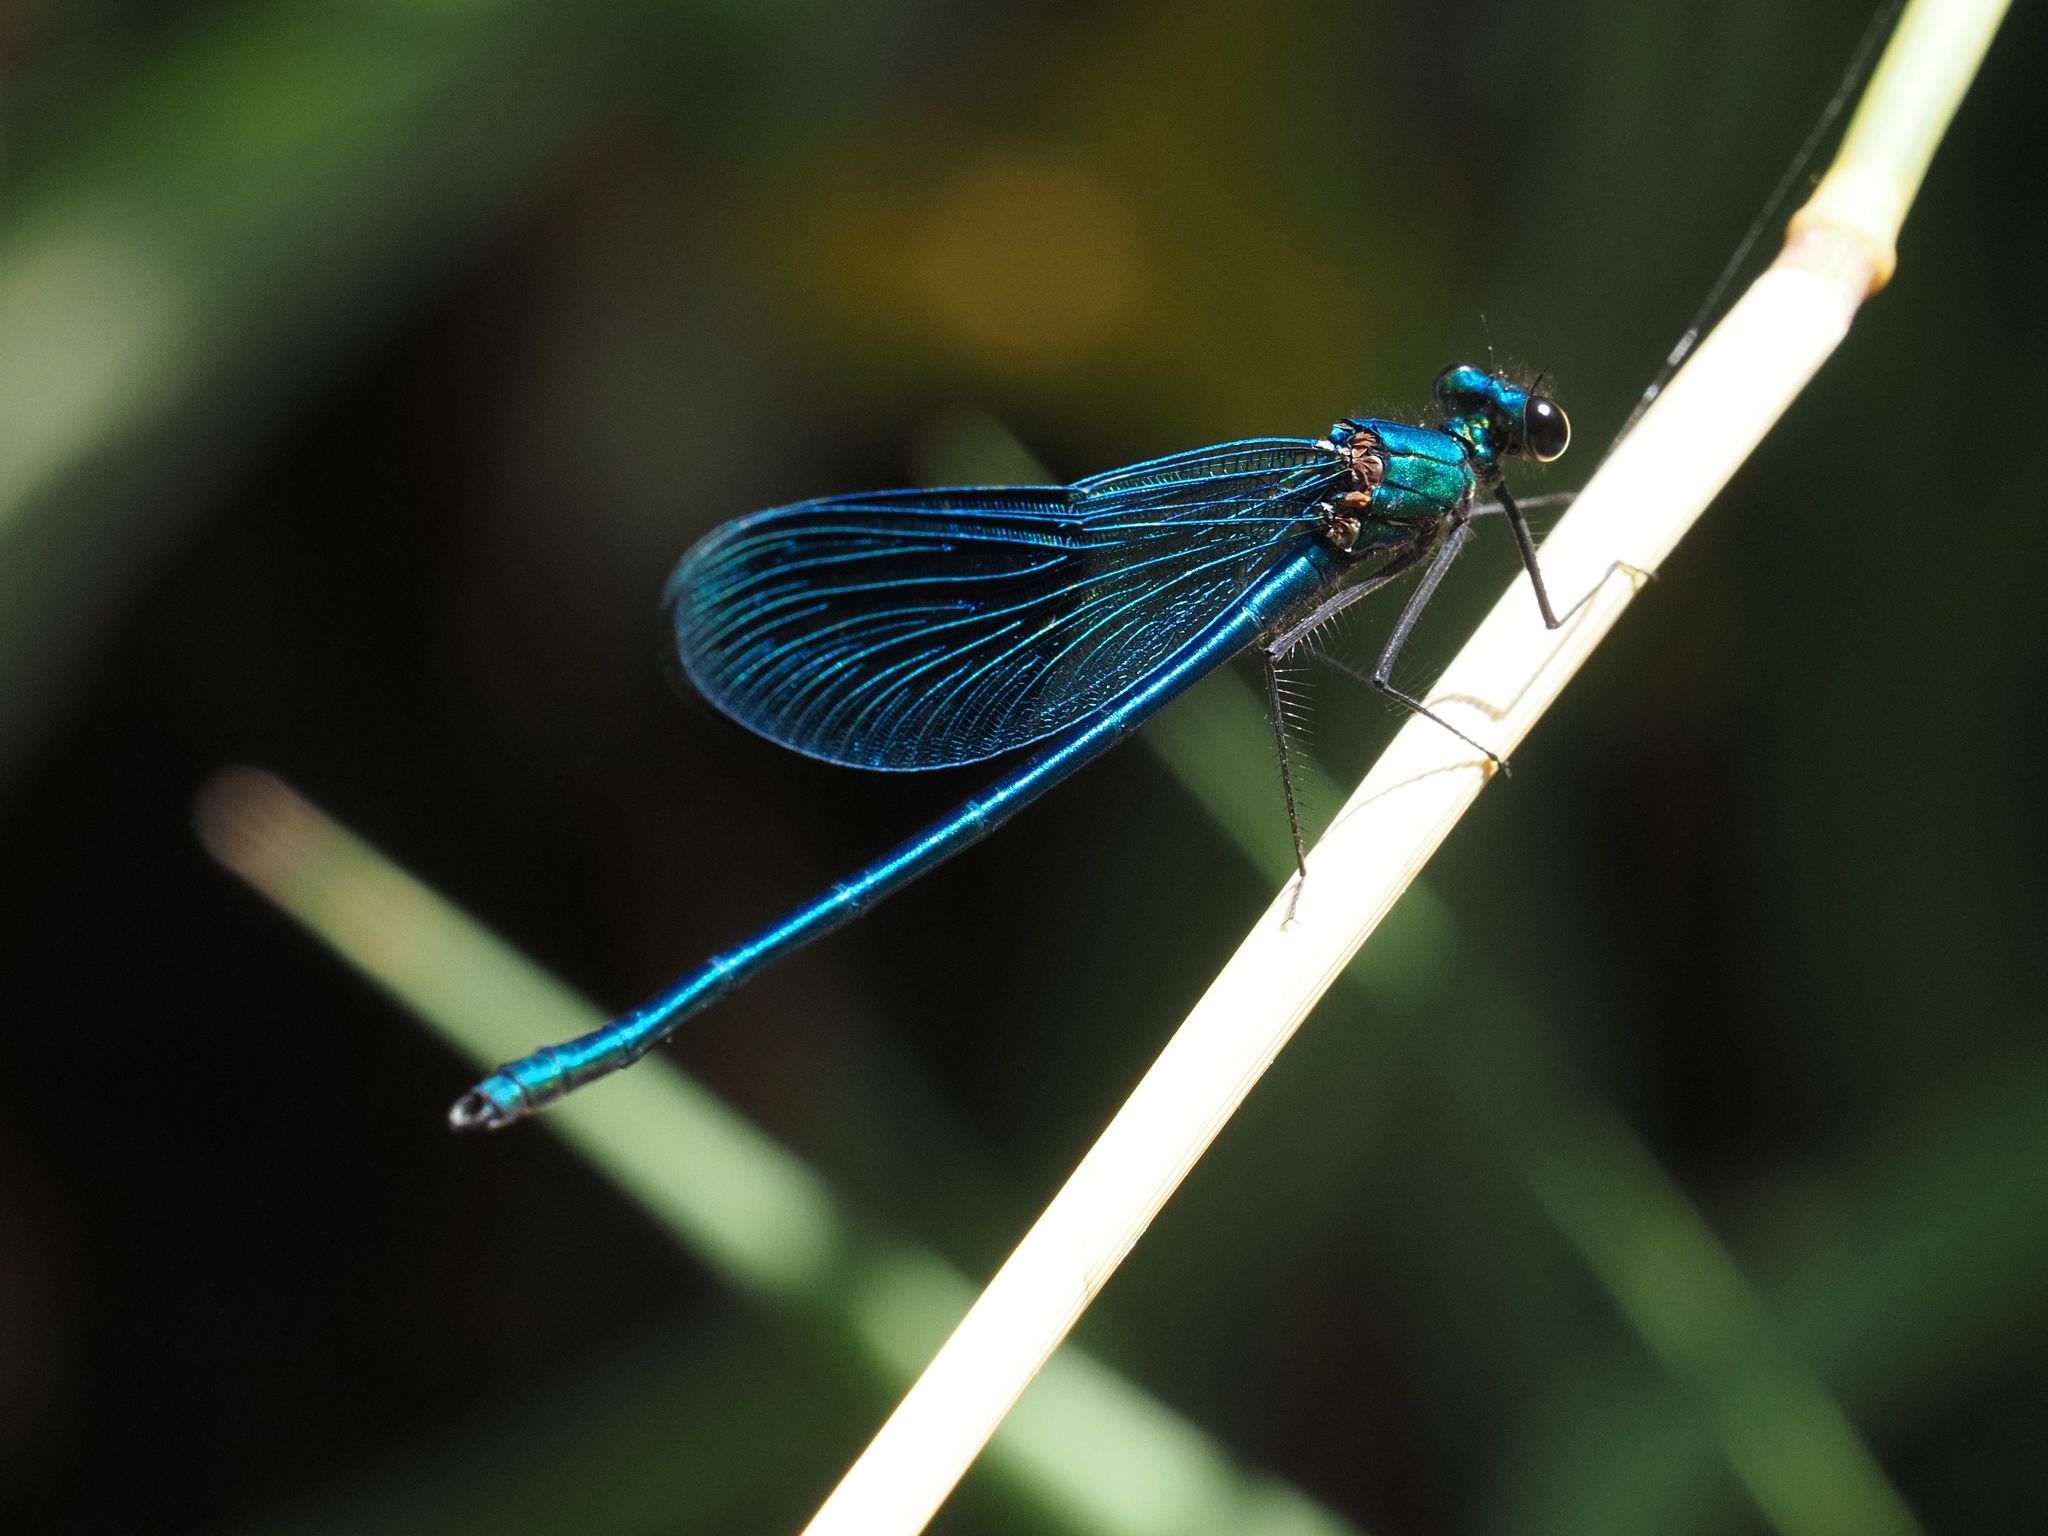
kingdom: Animalia
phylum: Arthropoda
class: Insecta
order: Odonata
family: Calopterygidae
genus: Calopteryx
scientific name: Calopteryx splendens
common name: Banded demoiselle
